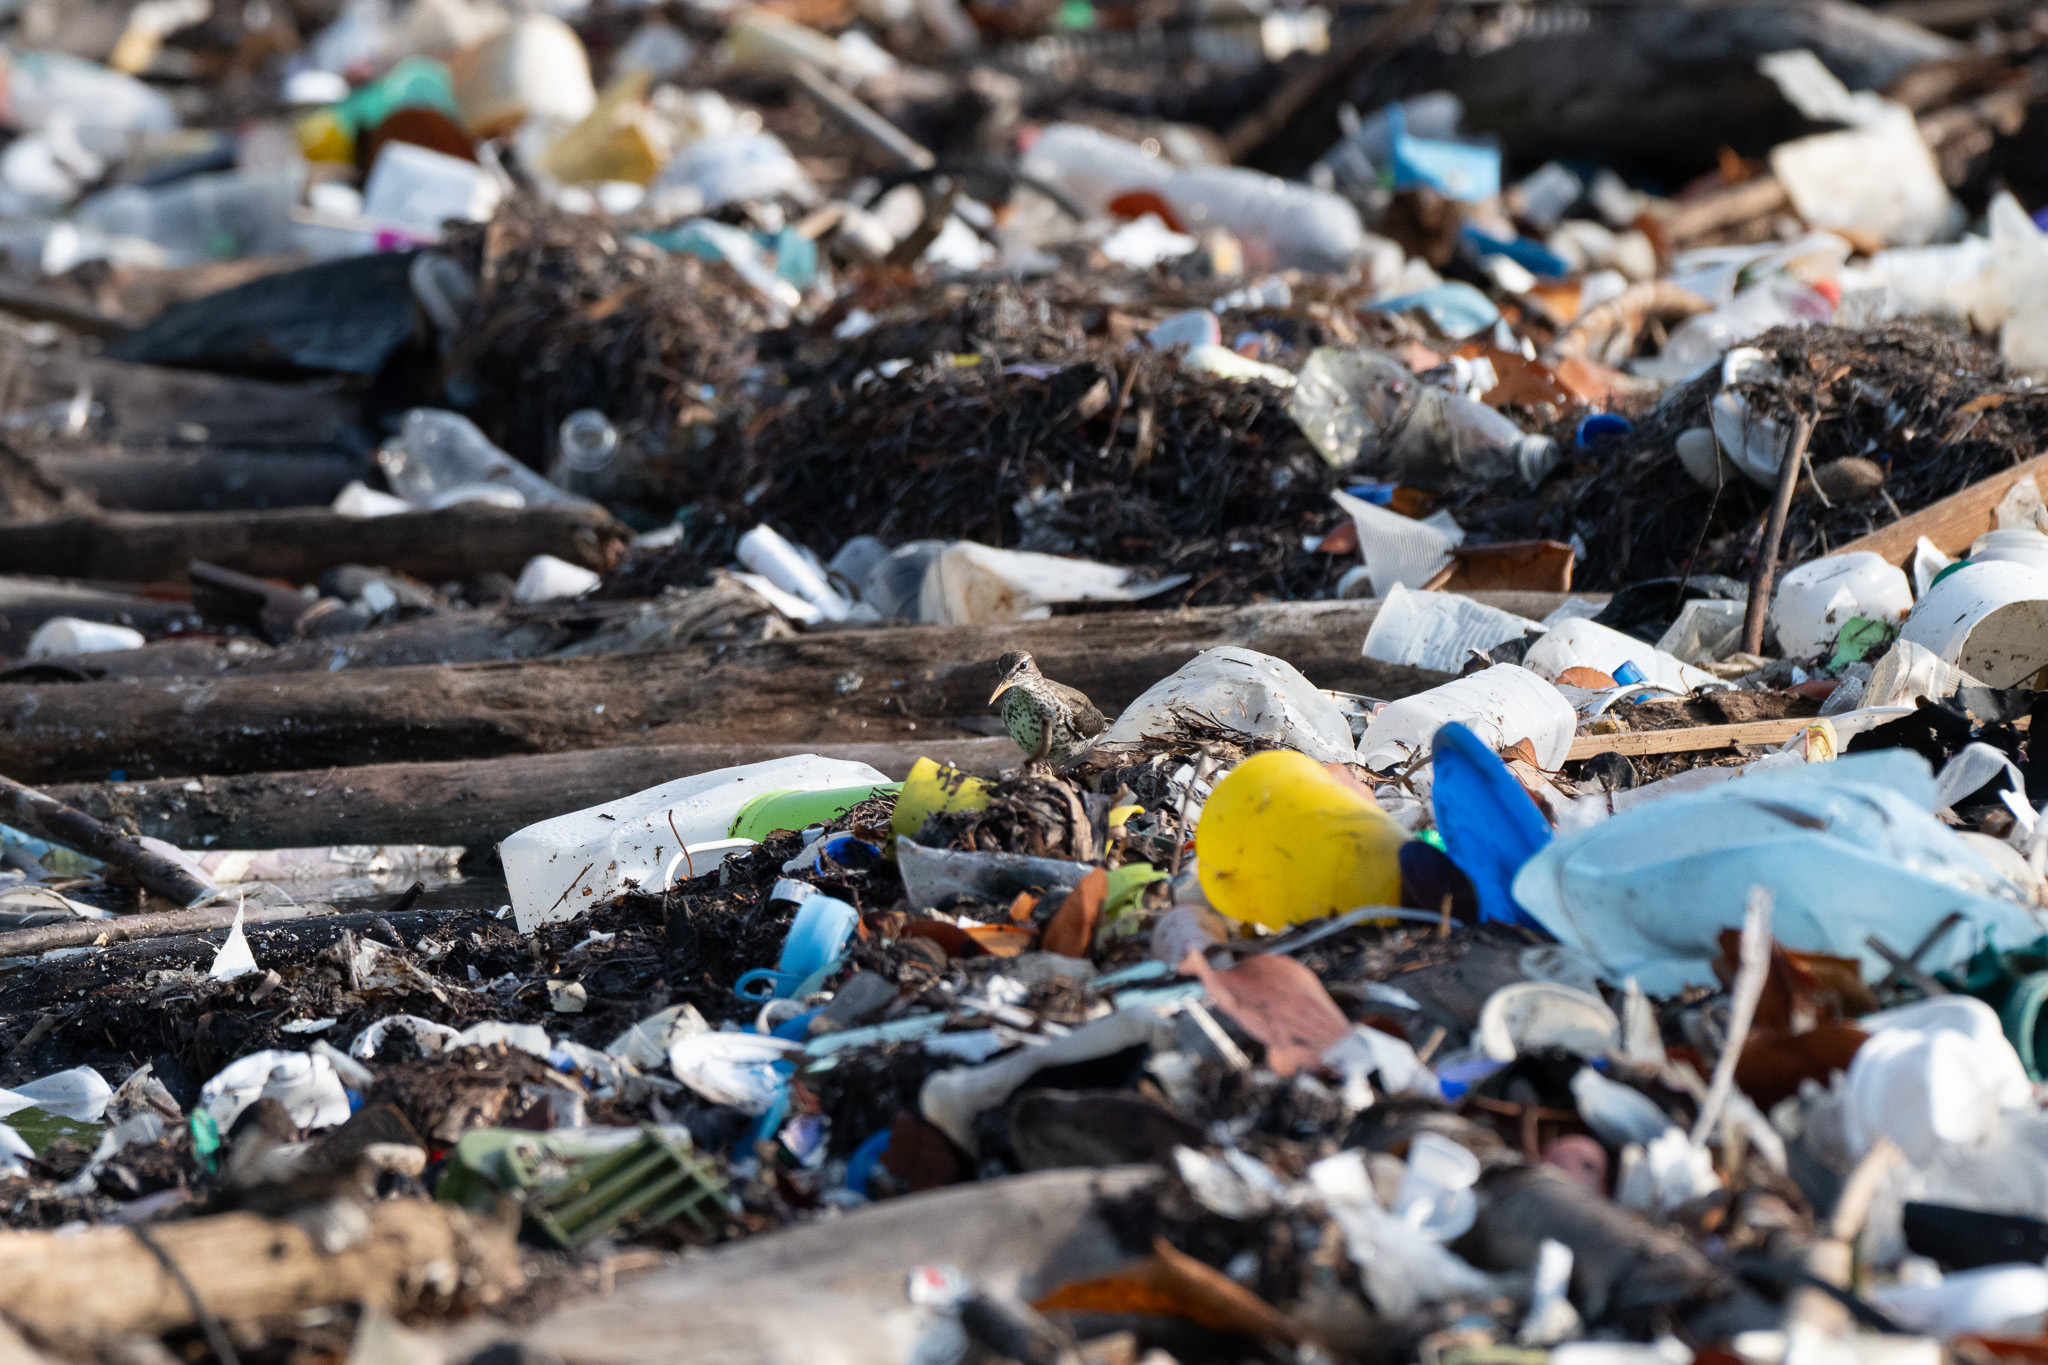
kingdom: Animalia
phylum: Chordata
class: Aves
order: Charadriiformes
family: Scolopacidae
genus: Actitis
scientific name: Actitis macularius
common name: Spotted sandpiper
